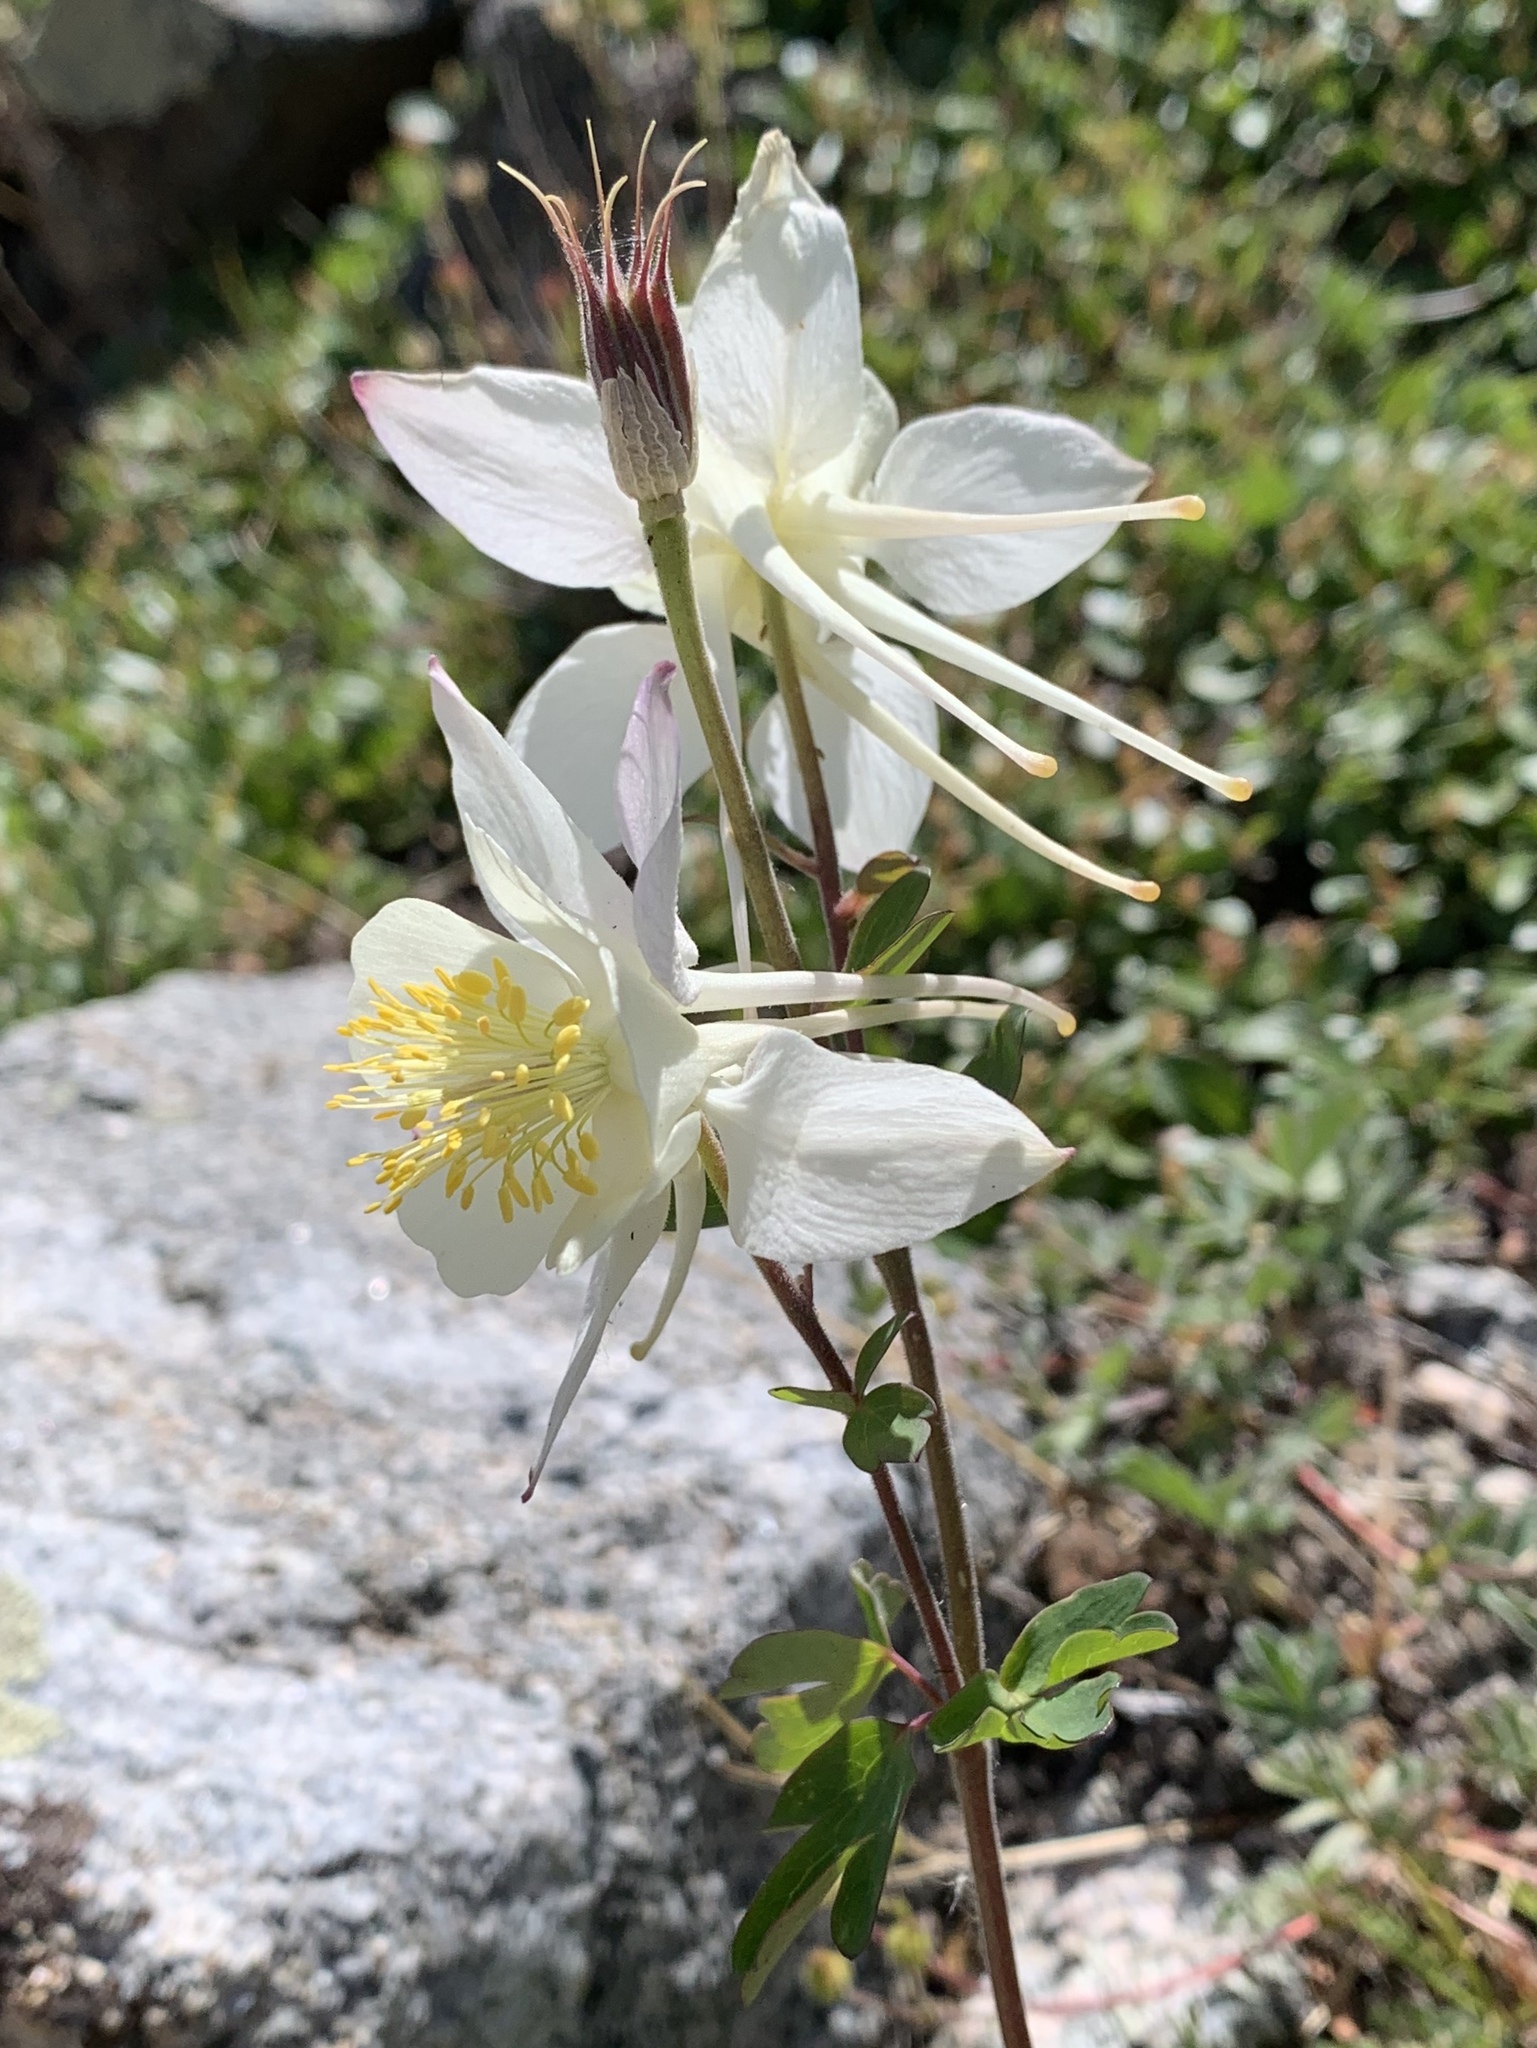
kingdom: Plantae
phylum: Tracheophyta
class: Magnoliopsida
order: Ranunculales
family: Ranunculaceae
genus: Aquilegia
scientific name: Aquilegia coerulea
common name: Rocky mountain columbine
